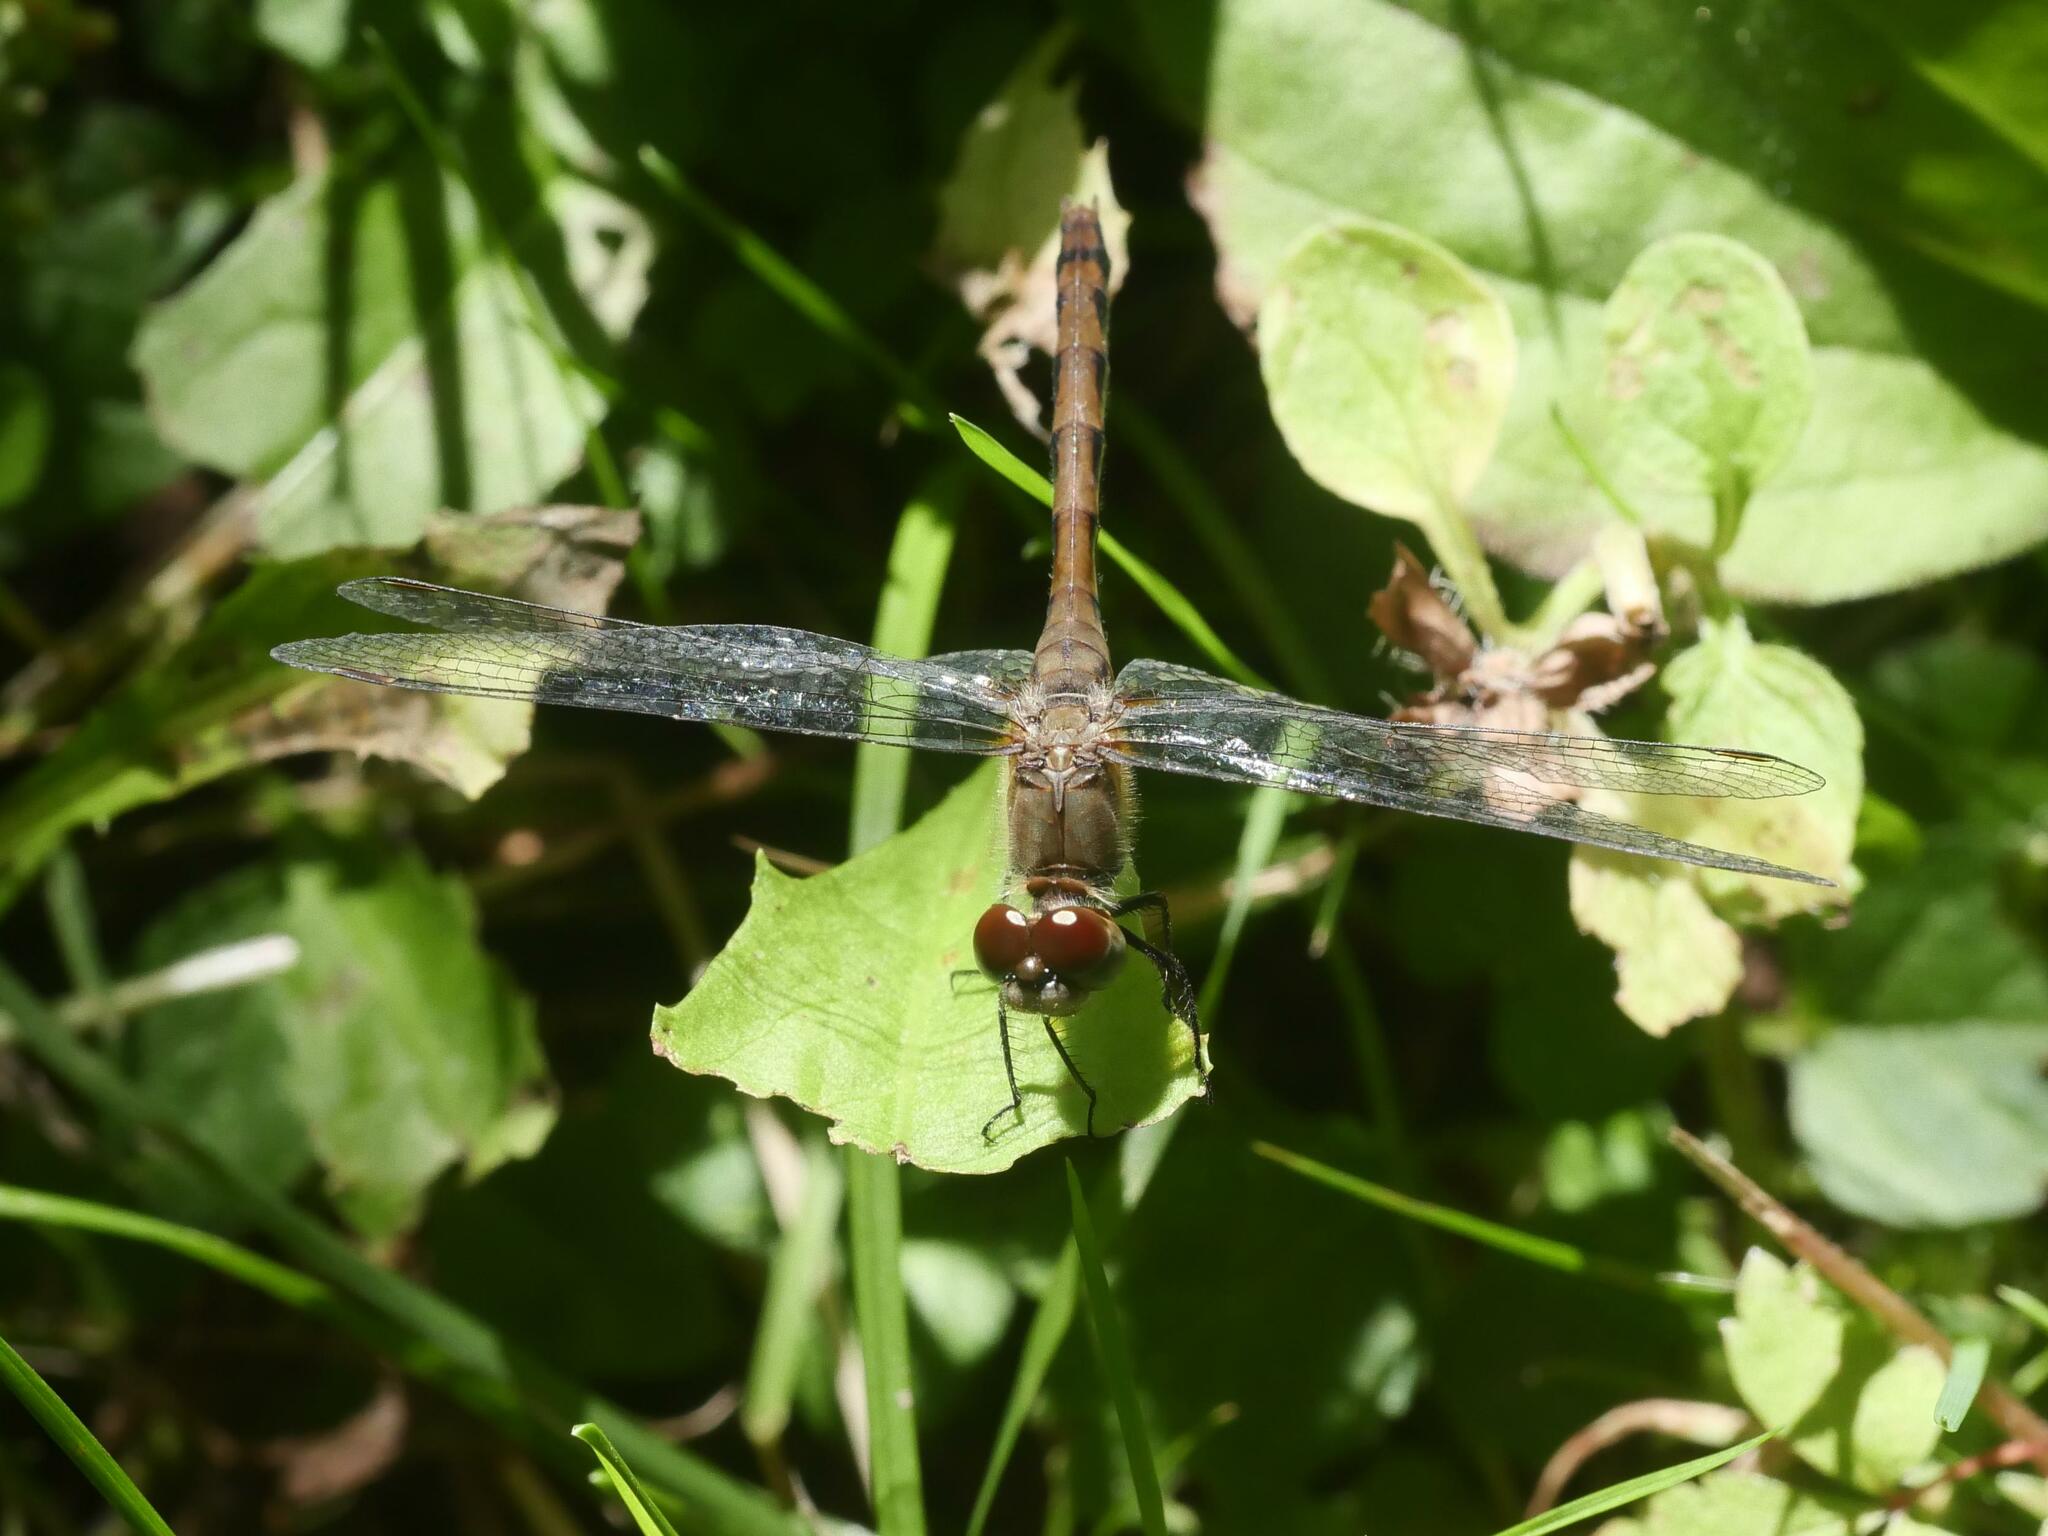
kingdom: Animalia
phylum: Arthropoda
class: Insecta
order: Odonata
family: Libellulidae
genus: Sympetrum
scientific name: Sympetrum obtrusum
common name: White-faced meadowhawk
